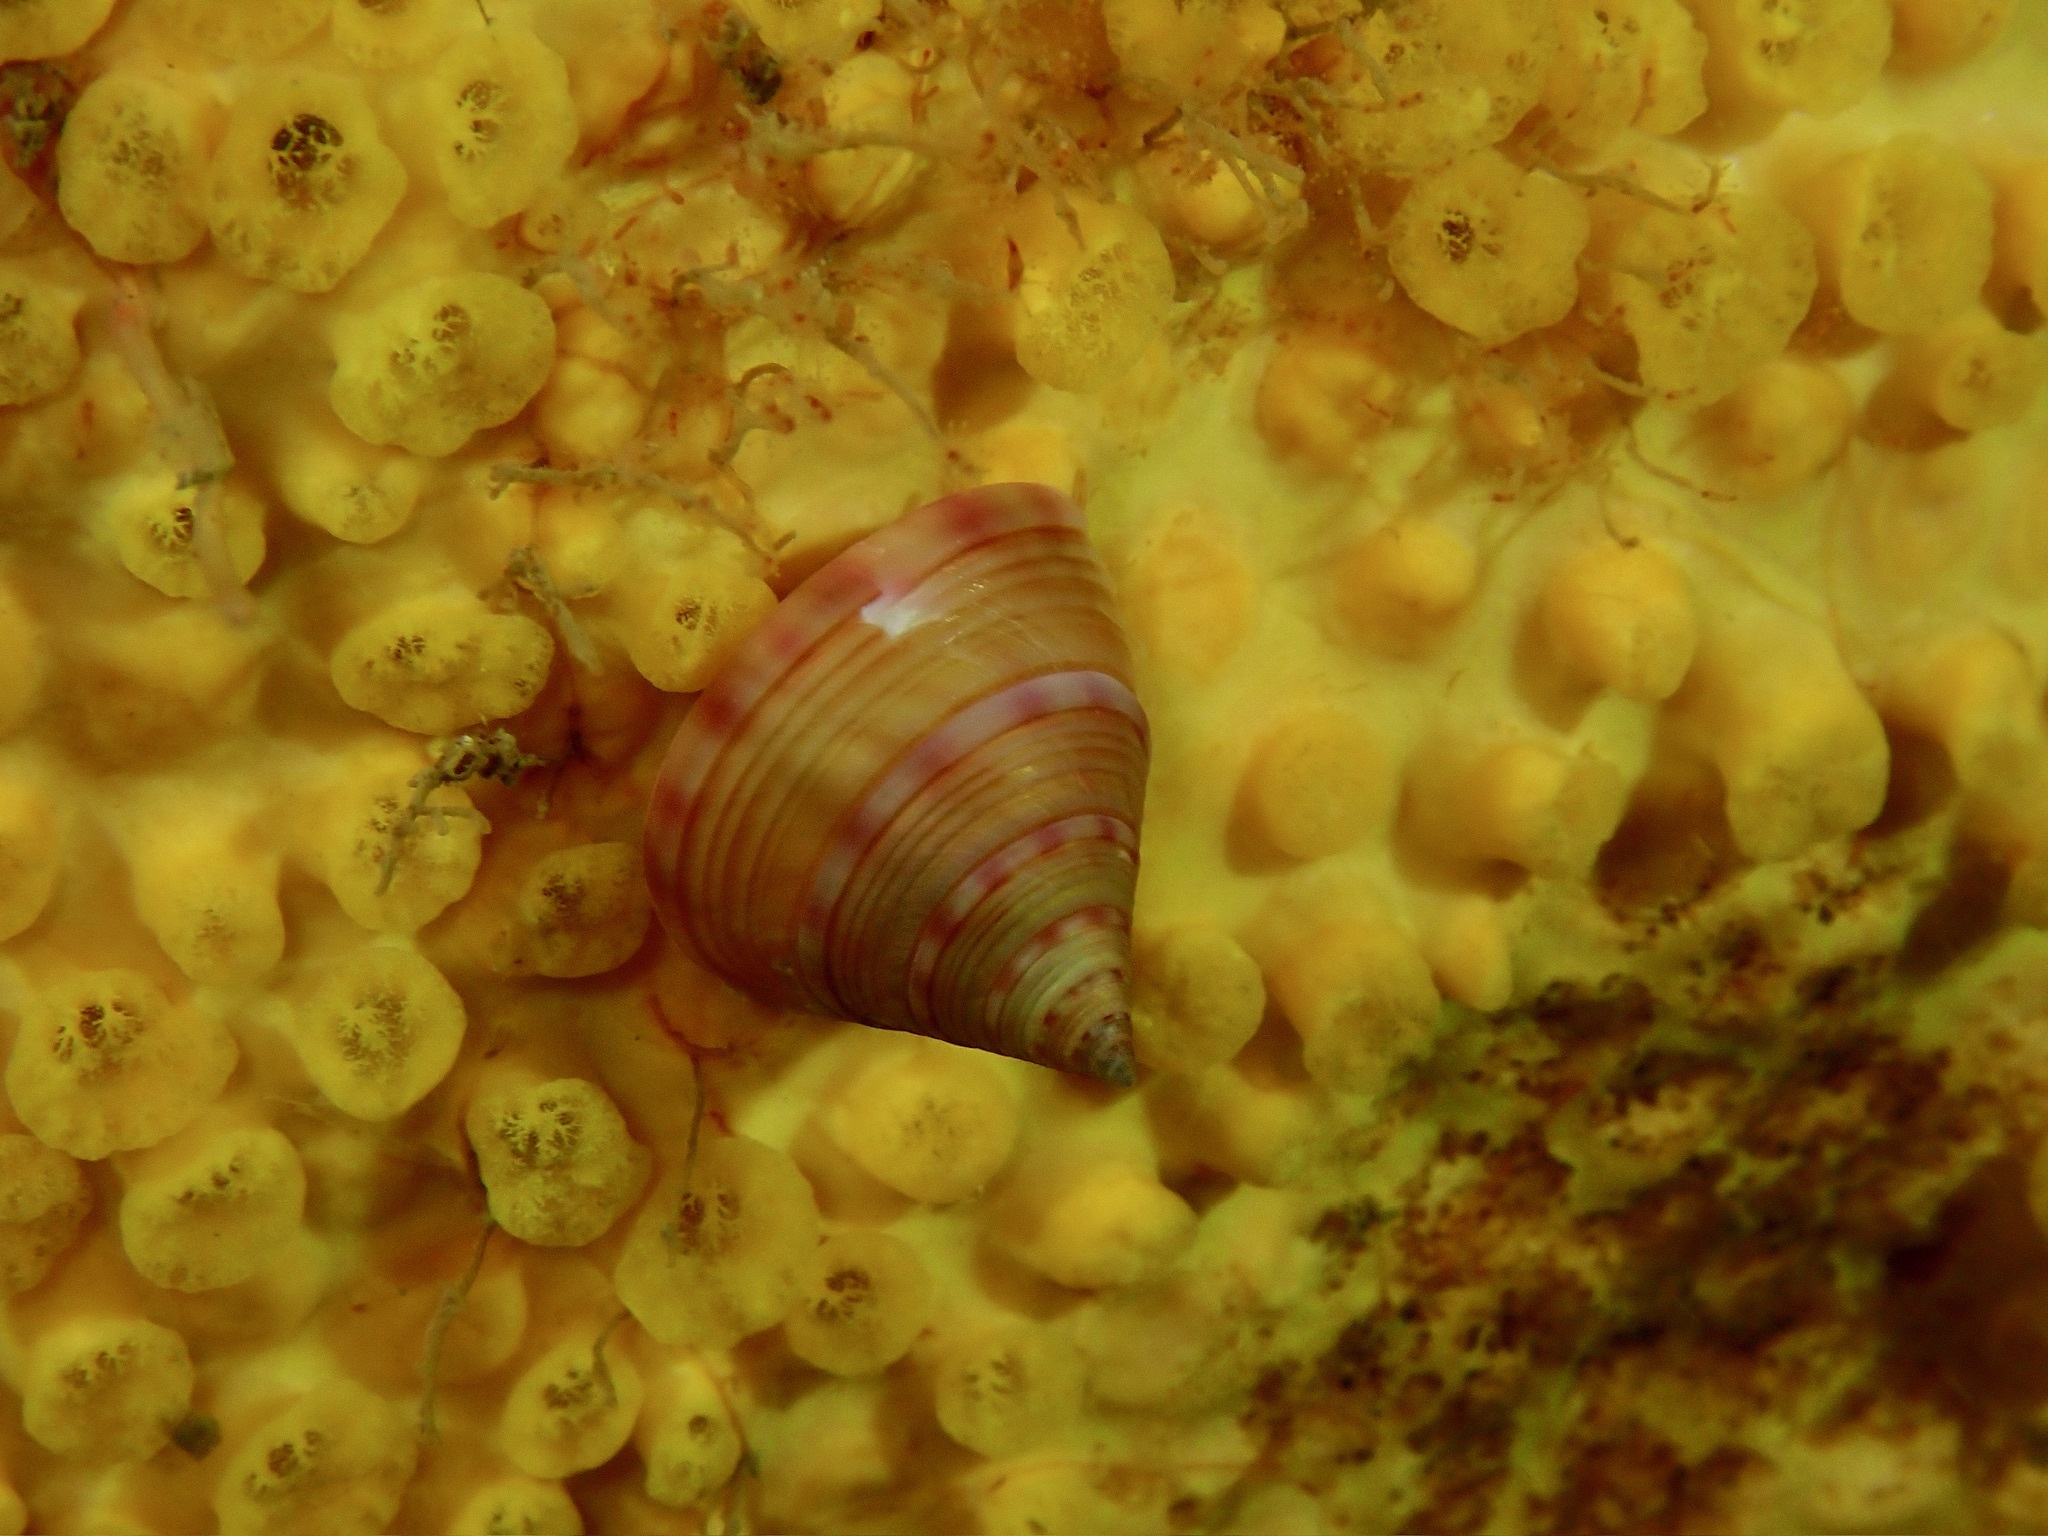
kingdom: Animalia
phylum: Mollusca
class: Gastropoda
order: Trochida
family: Calliostomatidae
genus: Calliostoma
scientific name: Calliostoma zizyphinum
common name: Painted top shell
